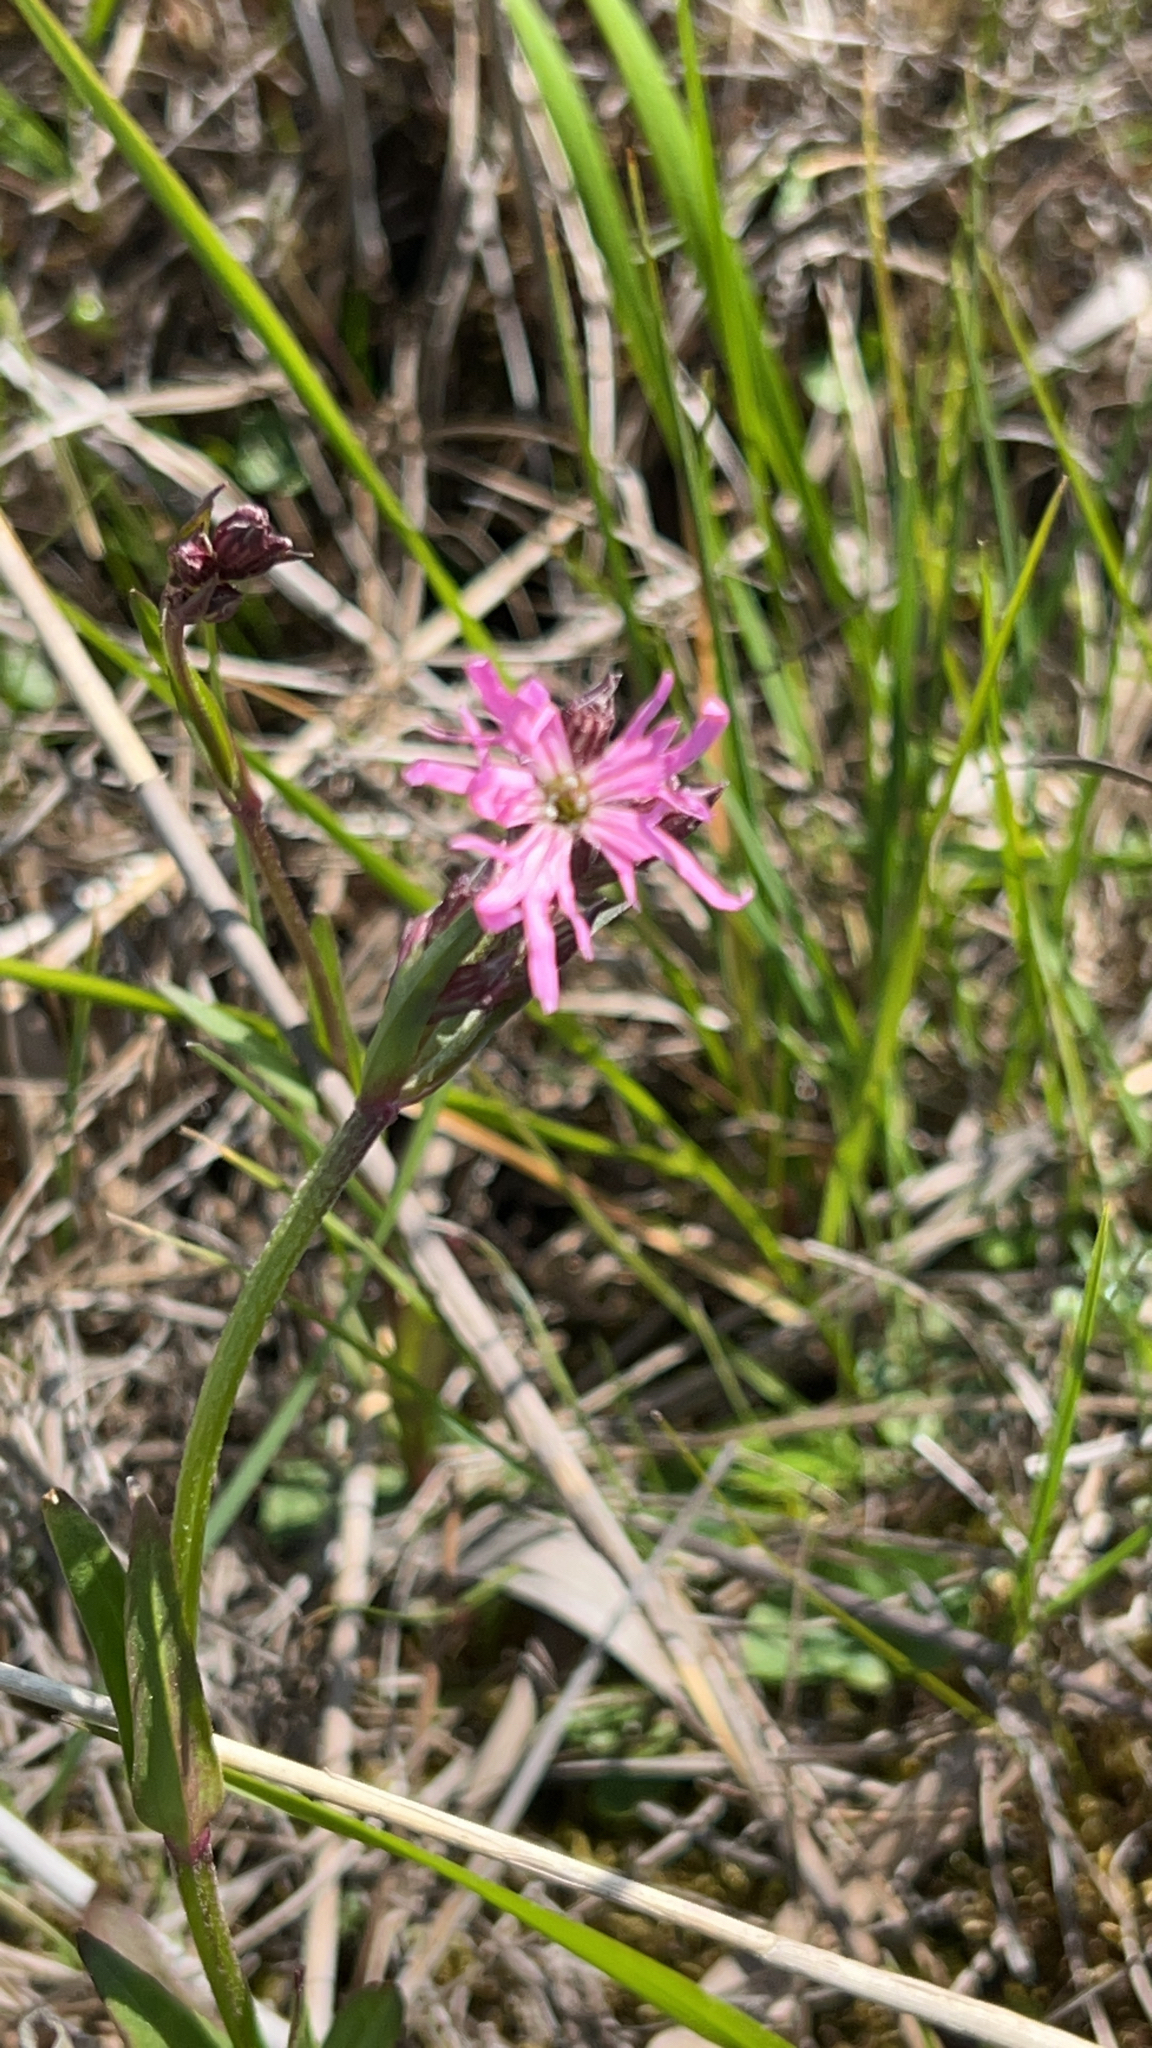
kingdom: Plantae
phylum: Tracheophyta
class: Magnoliopsida
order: Caryophyllales
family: Caryophyllaceae
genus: Silene
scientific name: Silene flos-cuculi
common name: Ragged-robin
